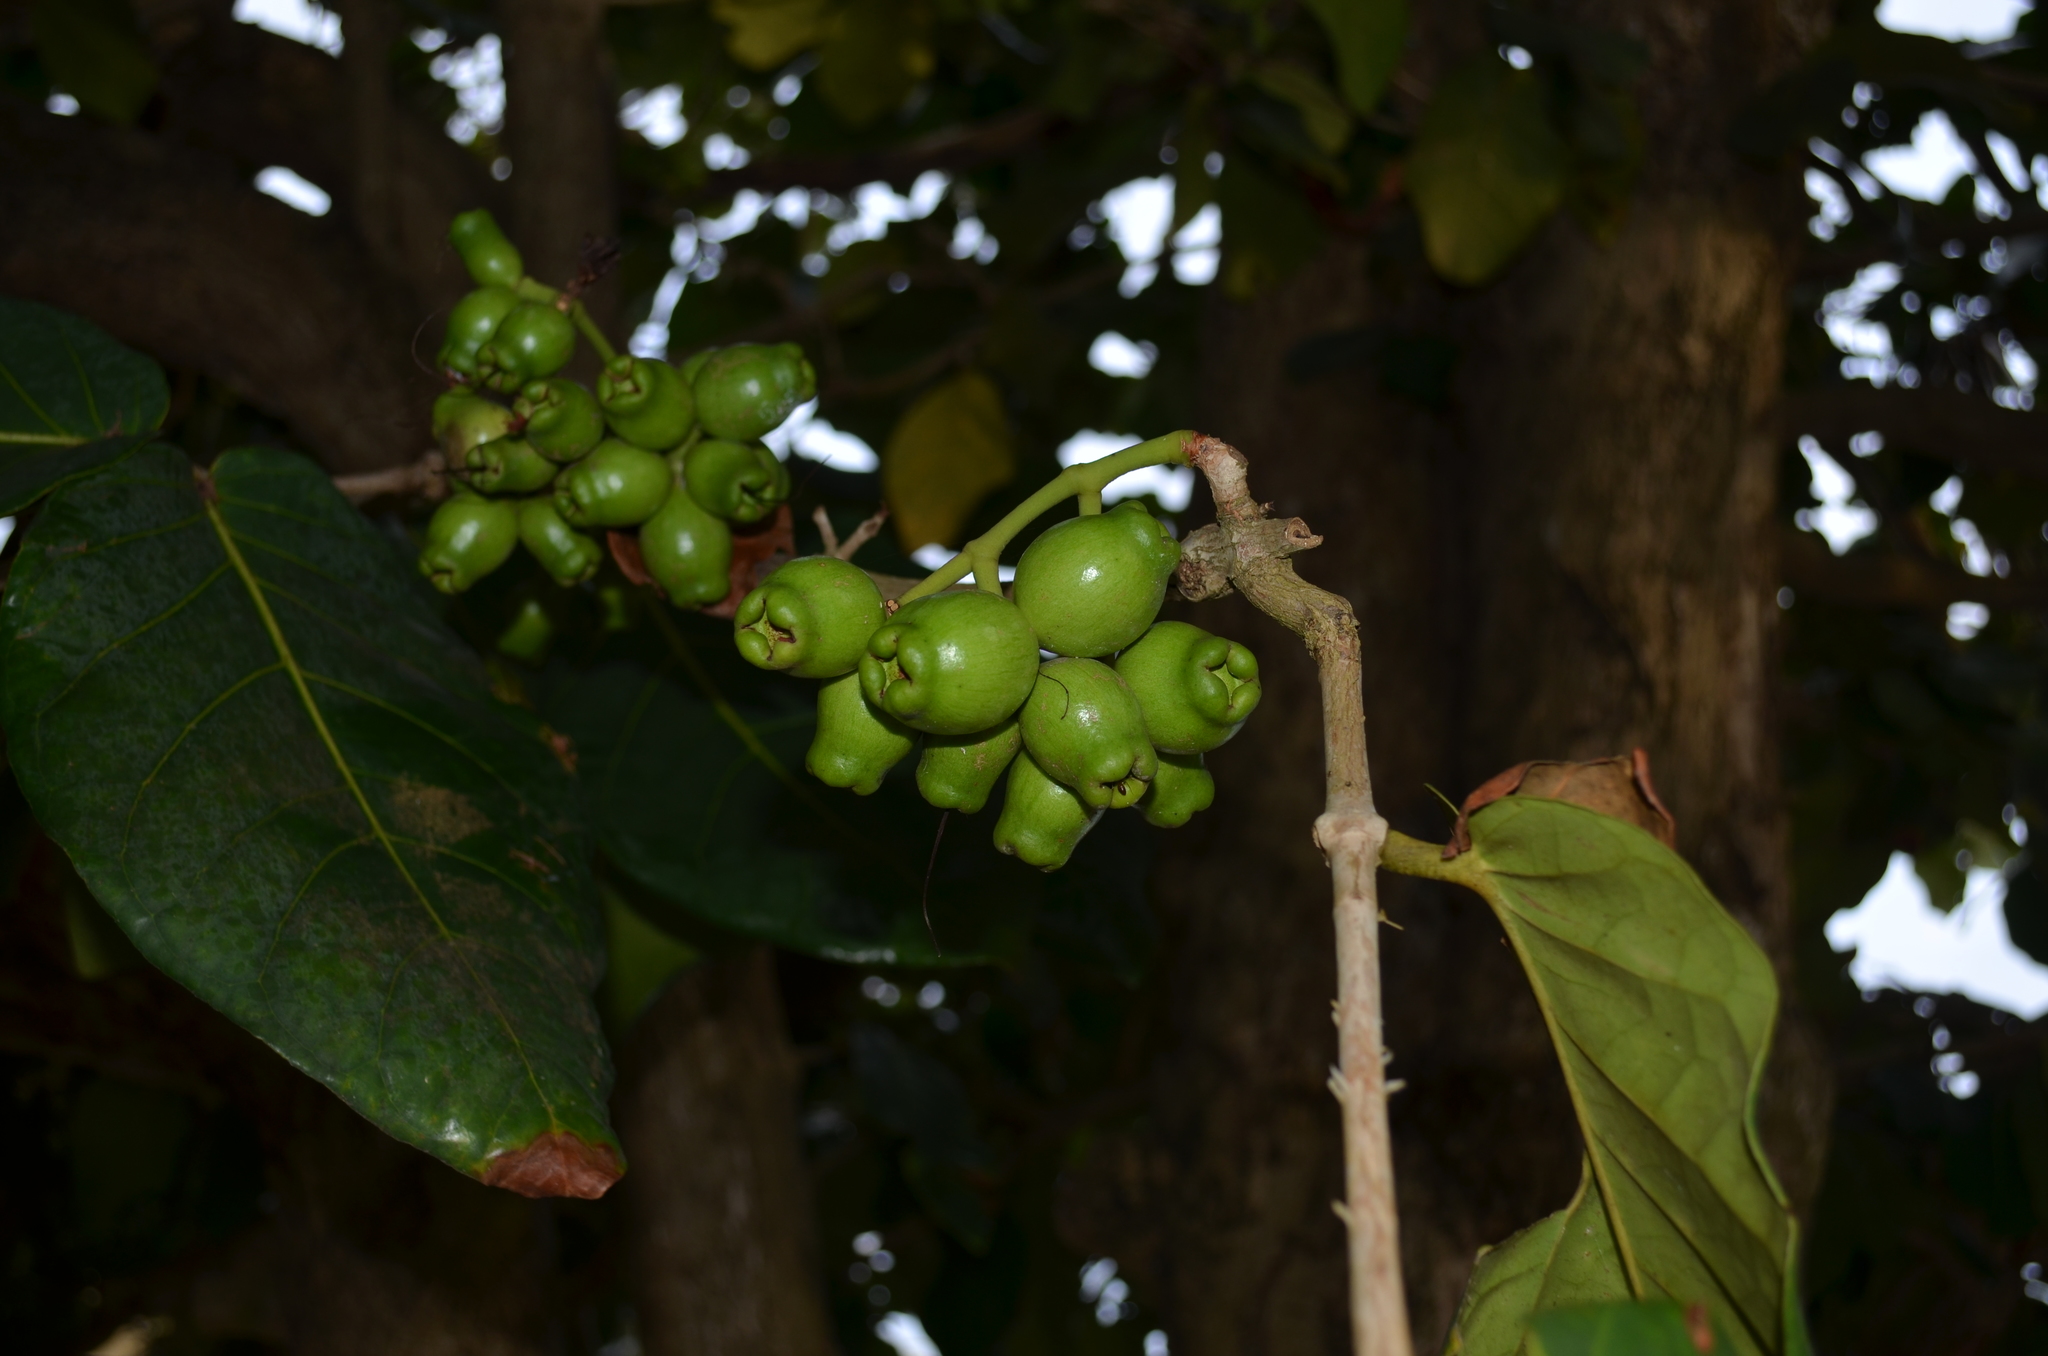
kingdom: Plantae
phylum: Tracheophyta
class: Magnoliopsida
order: Boraginales
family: Cordiaceae
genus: Cordia
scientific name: Cordia subcordata
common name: Mareer
